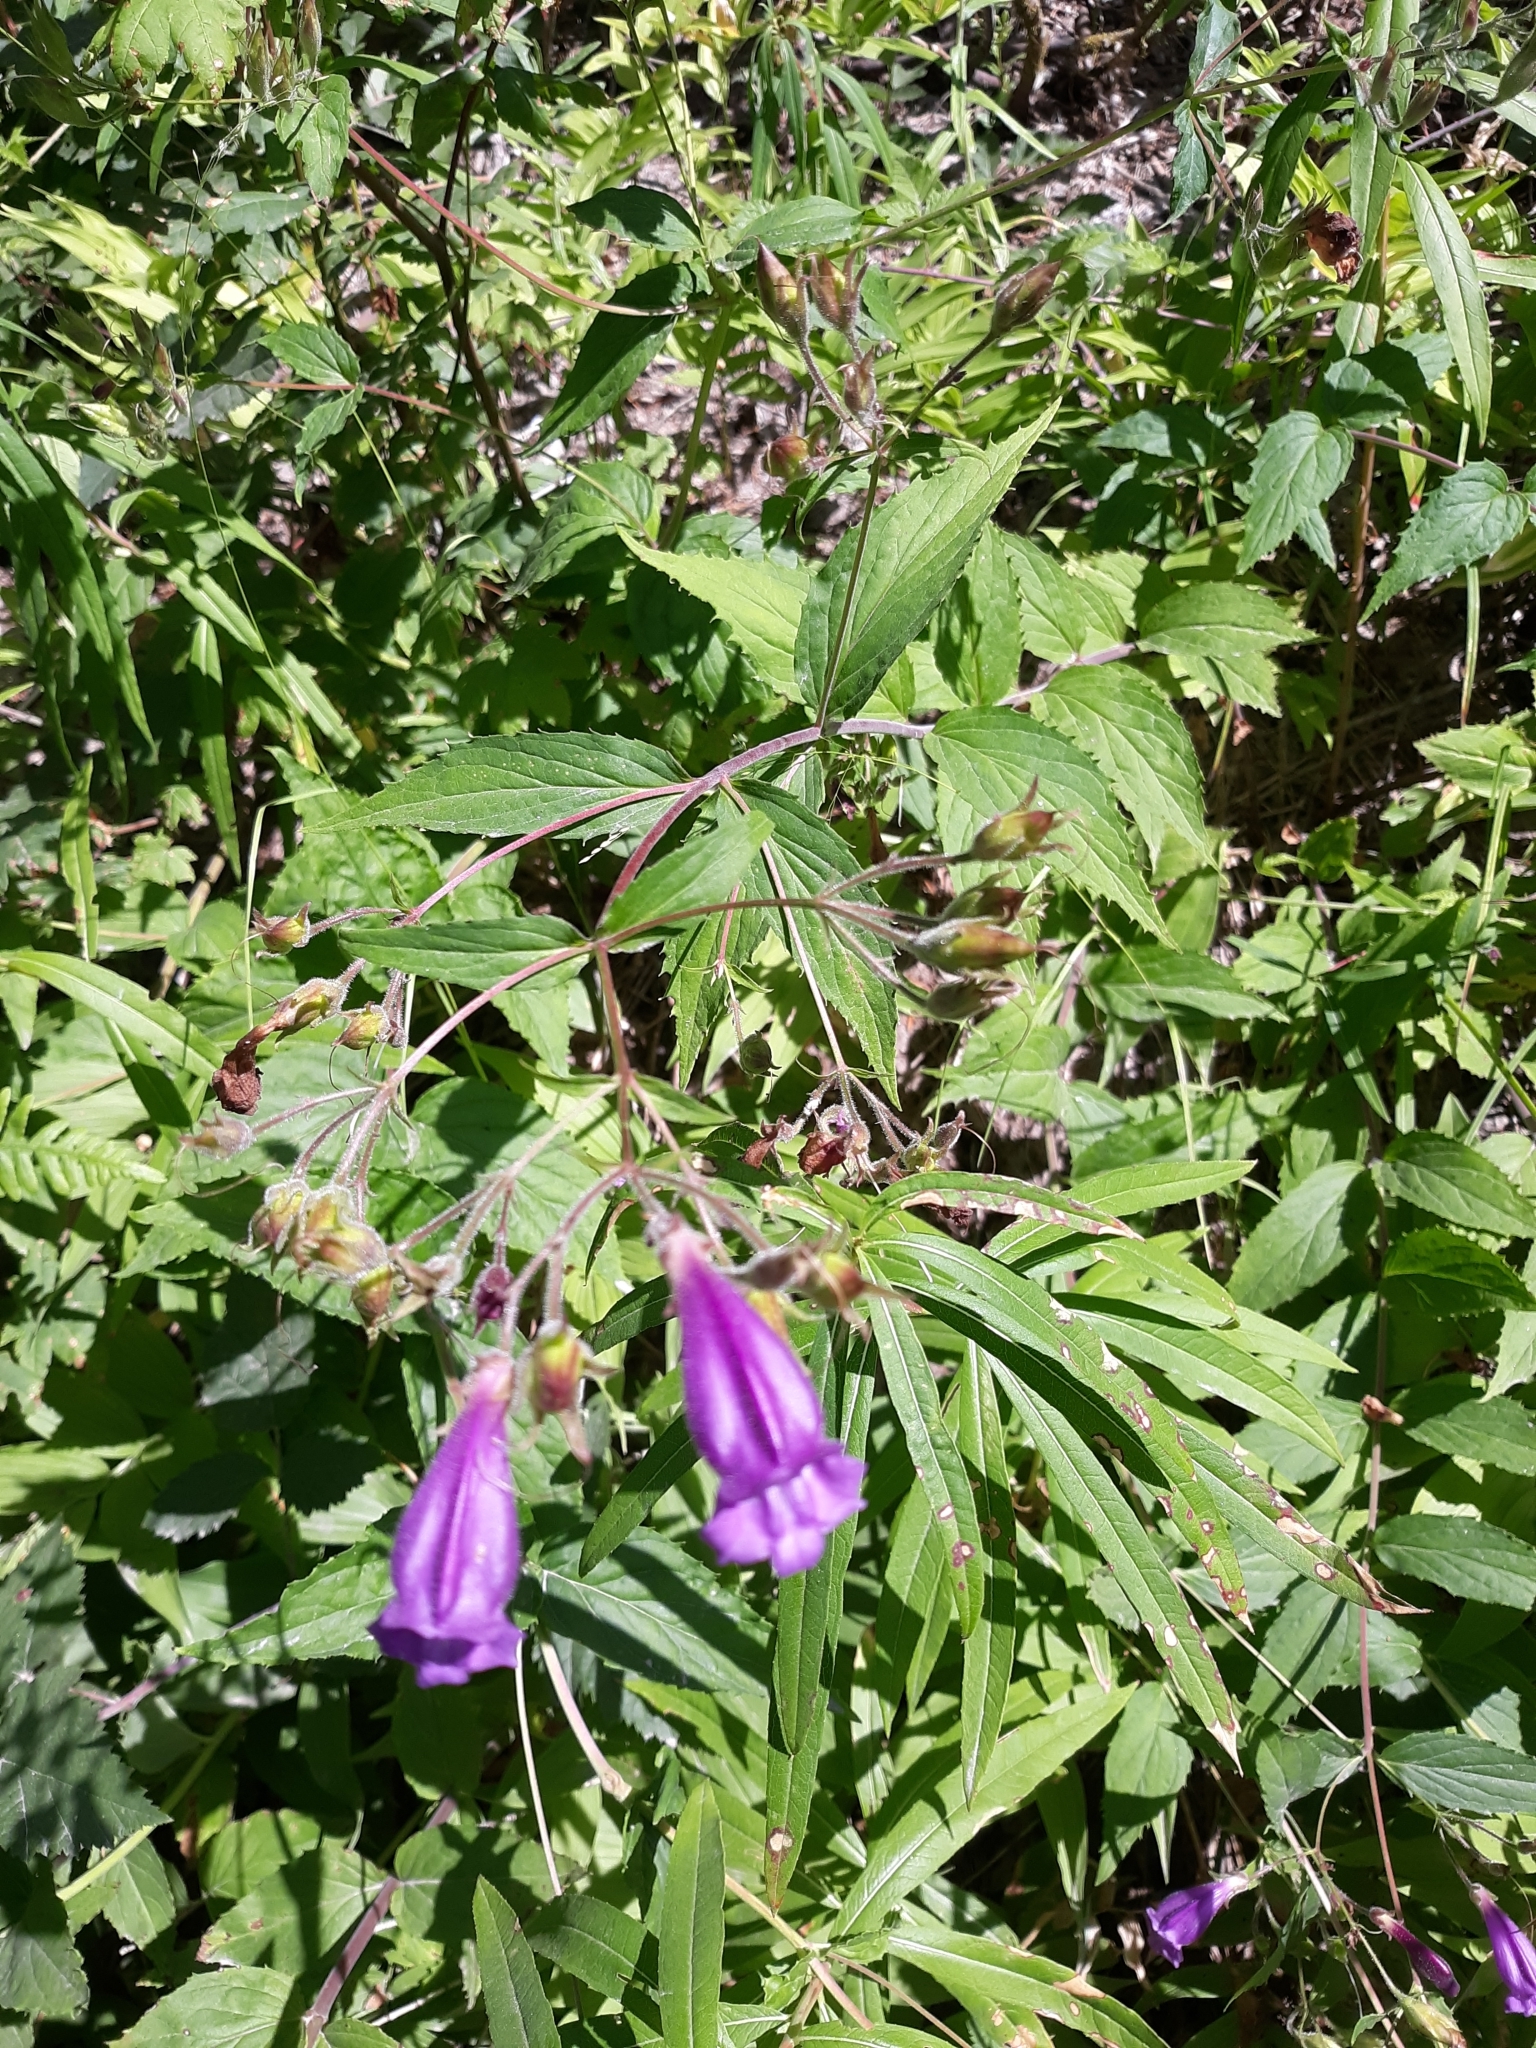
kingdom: Plantae
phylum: Tracheophyta
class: Magnoliopsida
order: Lamiales
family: Plantaginaceae
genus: Nothochelone
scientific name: Nothochelone nemorosa
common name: Woodland beardtongue
